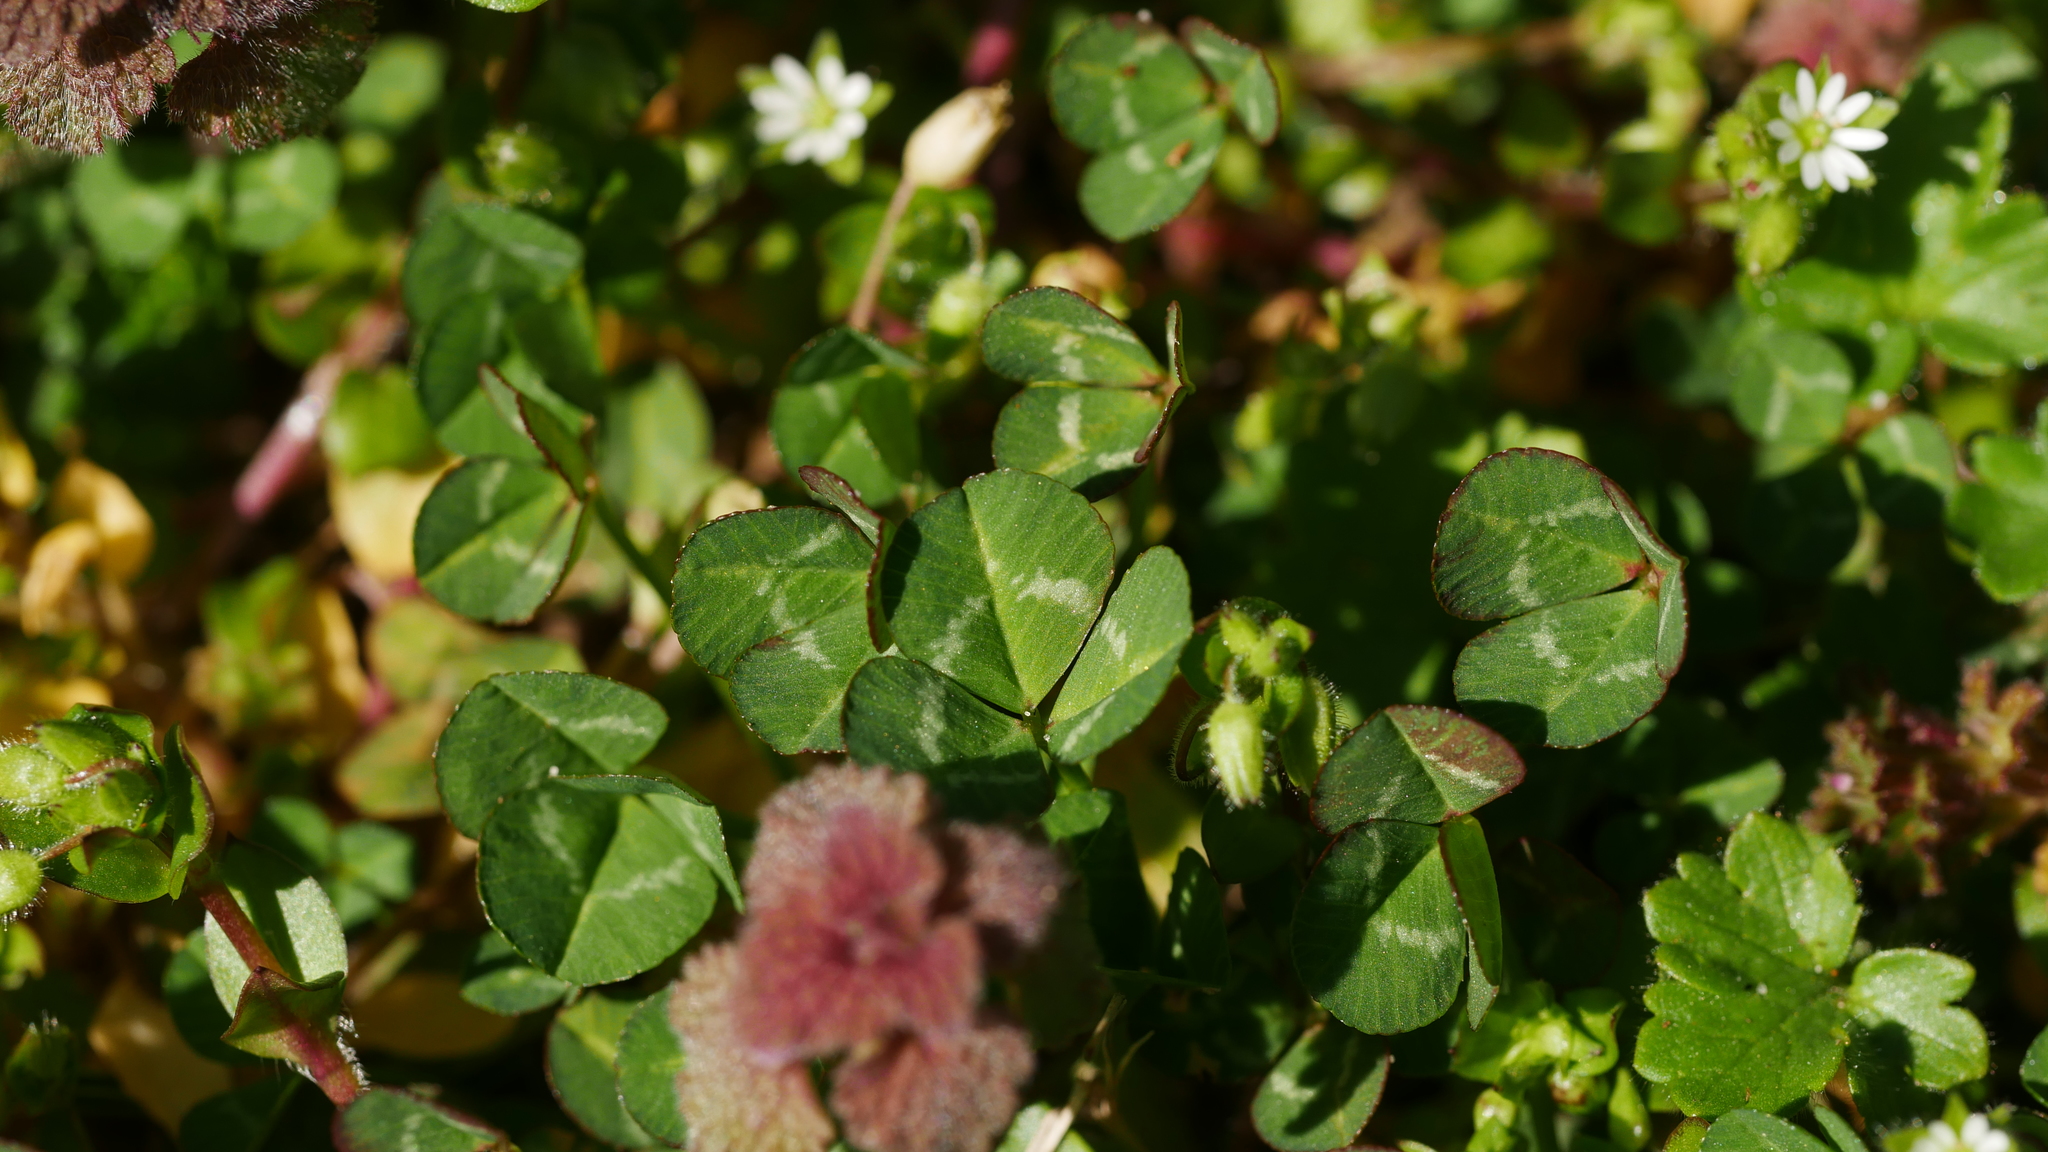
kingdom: Plantae
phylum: Tracheophyta
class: Magnoliopsida
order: Fabales
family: Fabaceae
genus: Trifolium
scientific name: Trifolium repens
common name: White clover
